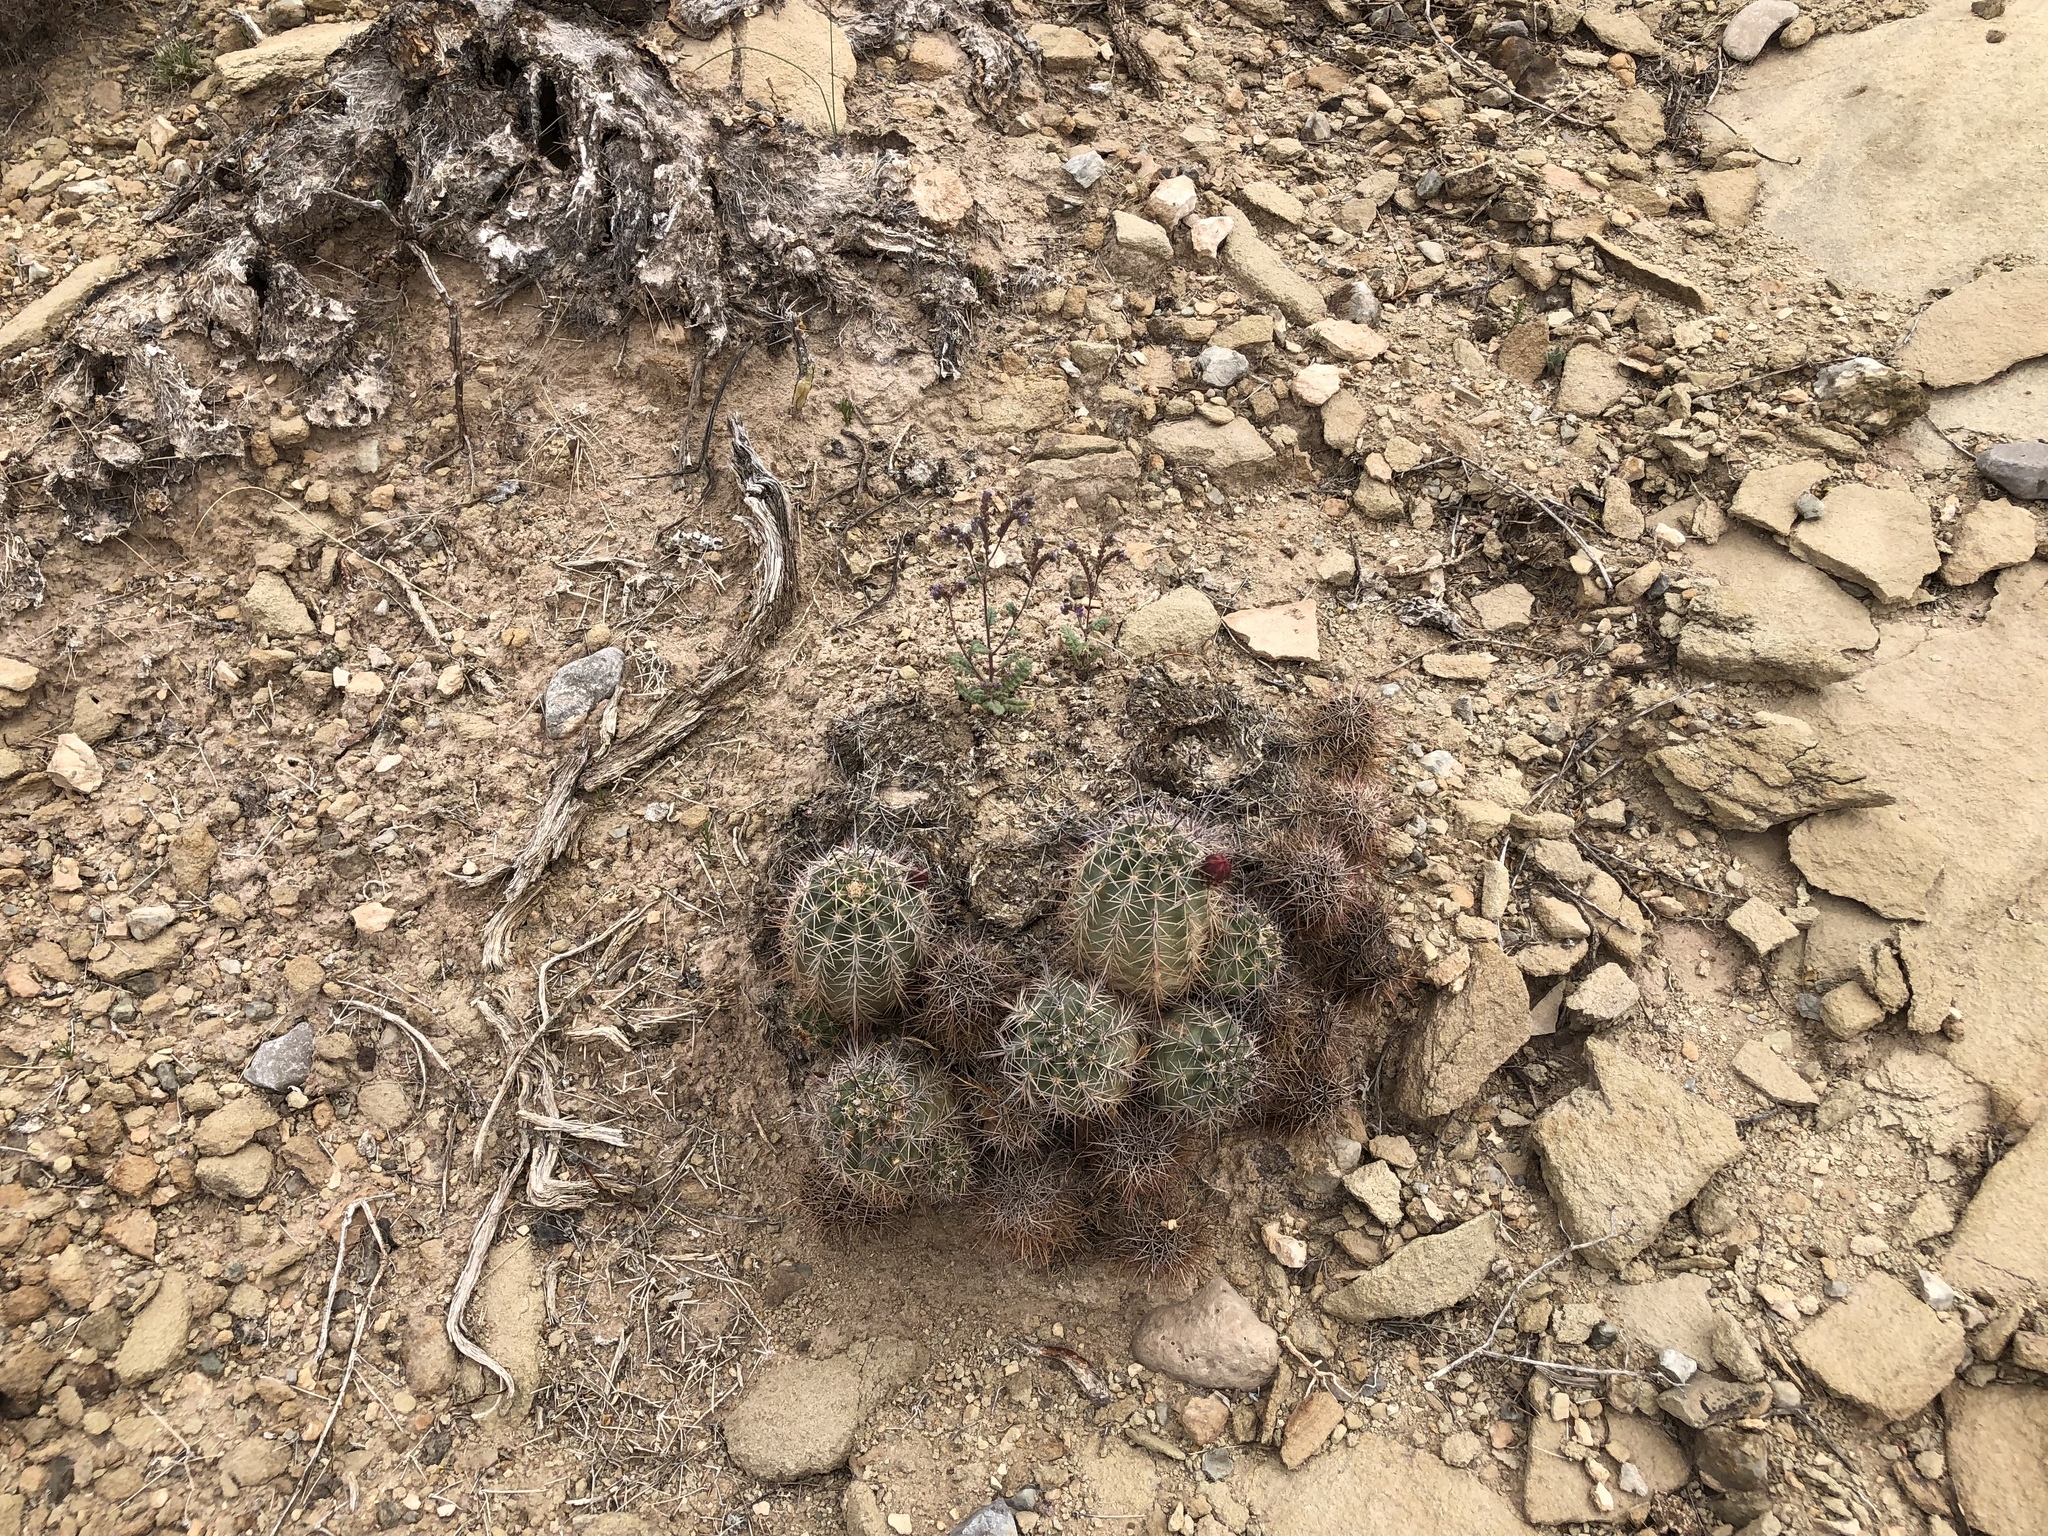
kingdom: Plantae
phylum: Tracheophyta
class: Magnoliopsida
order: Caryophyllales
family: Cactaceae
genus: Echinocereus
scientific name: Echinocereus coccineus
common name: Scarlet hedgehog cactus
